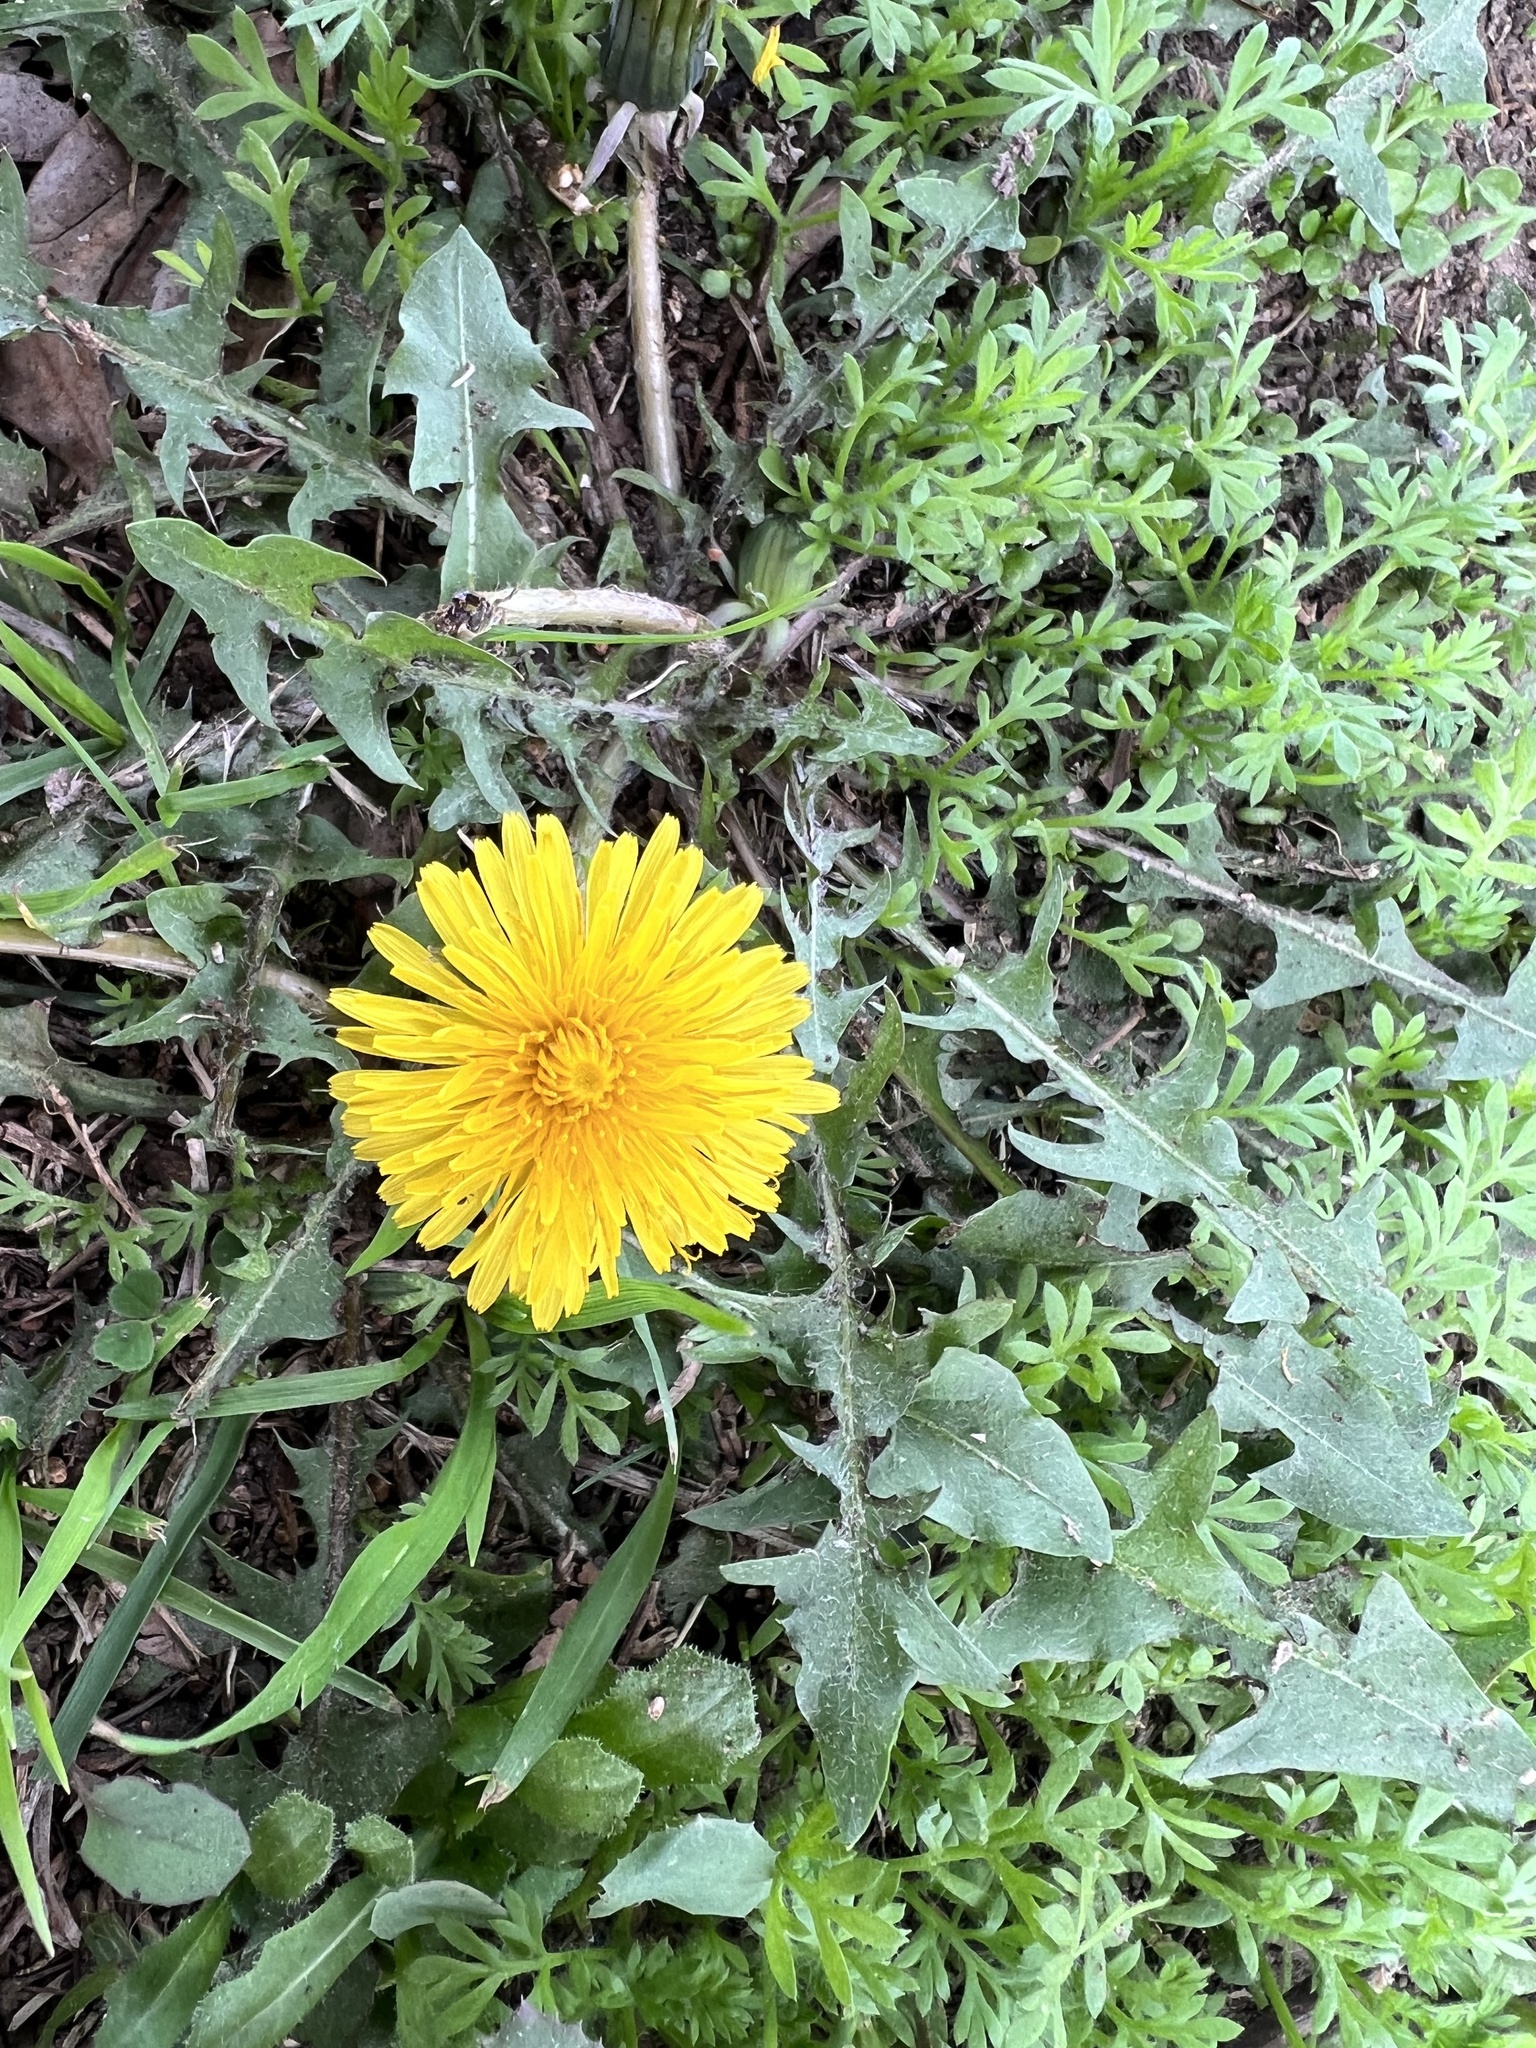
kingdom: Plantae
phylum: Tracheophyta
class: Magnoliopsida
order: Asterales
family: Asteraceae
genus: Taraxacum
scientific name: Taraxacum officinale
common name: Common dandelion
